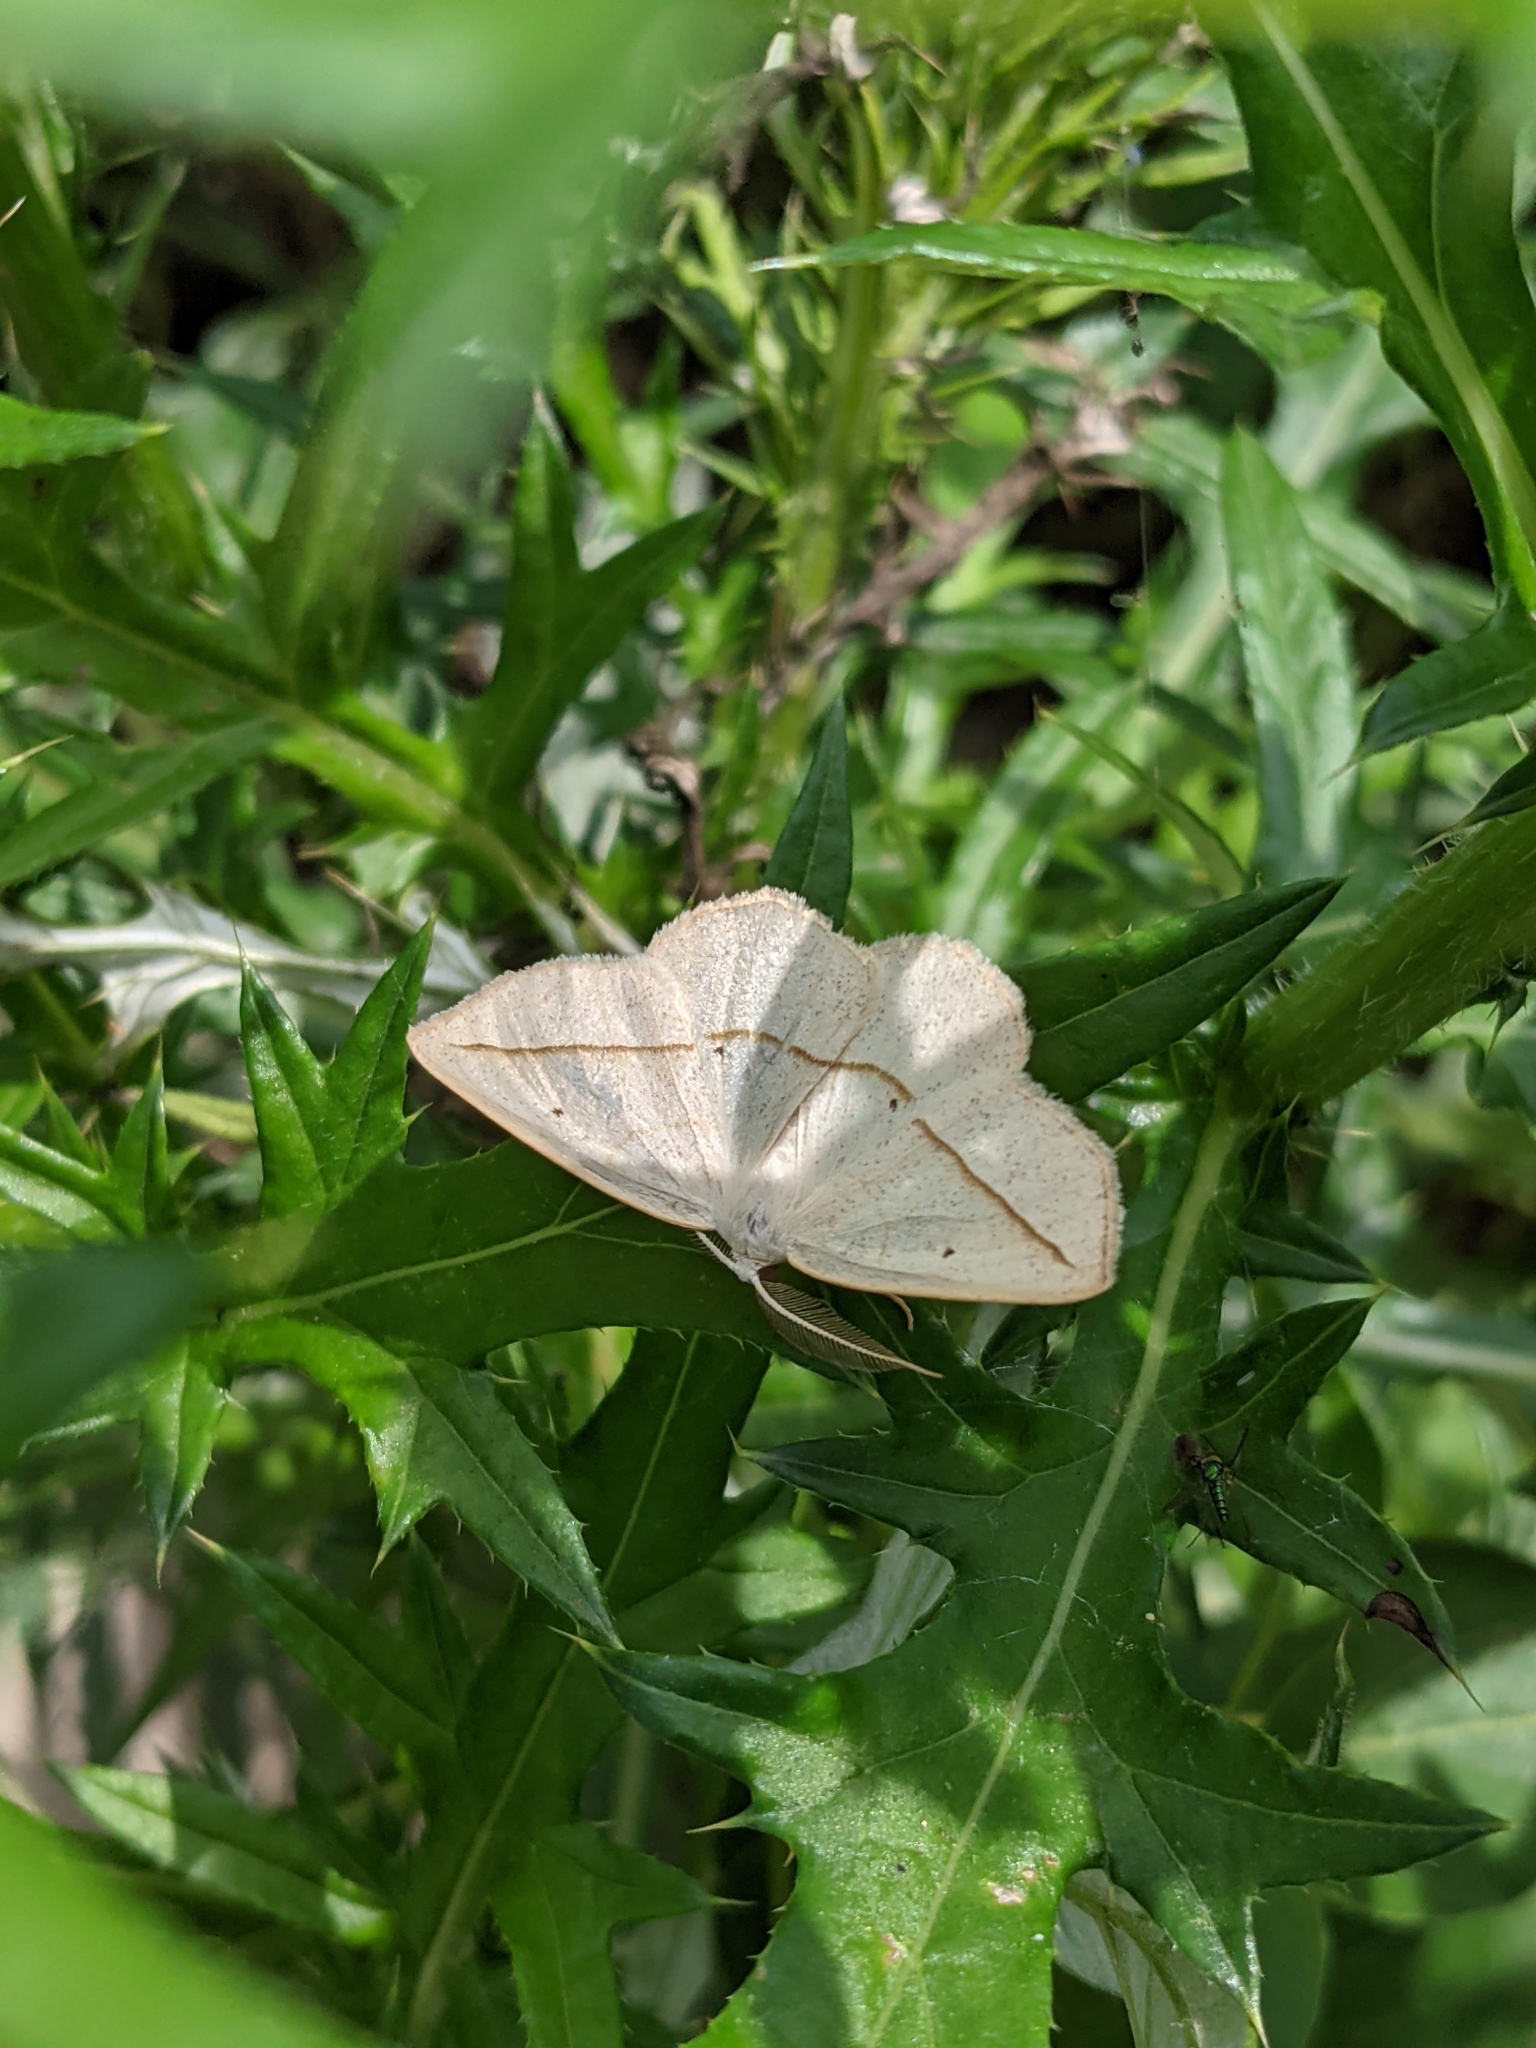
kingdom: Animalia
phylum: Arthropoda
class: Insecta
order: Lepidoptera
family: Geometridae
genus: Eusarca
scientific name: Eusarca confusaria
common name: Confused eusarca
